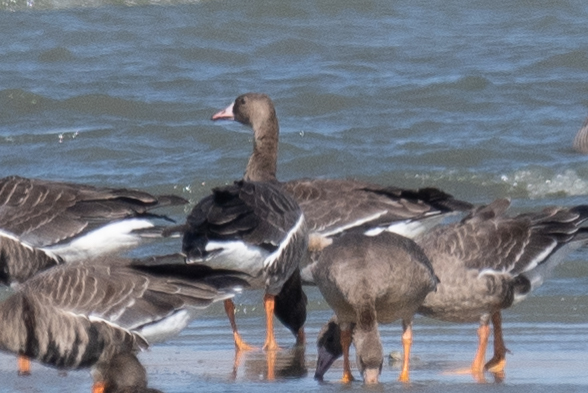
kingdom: Animalia
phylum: Chordata
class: Aves
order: Anseriformes
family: Anatidae
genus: Anser
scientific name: Anser albifrons
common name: Greater white-fronted goose
